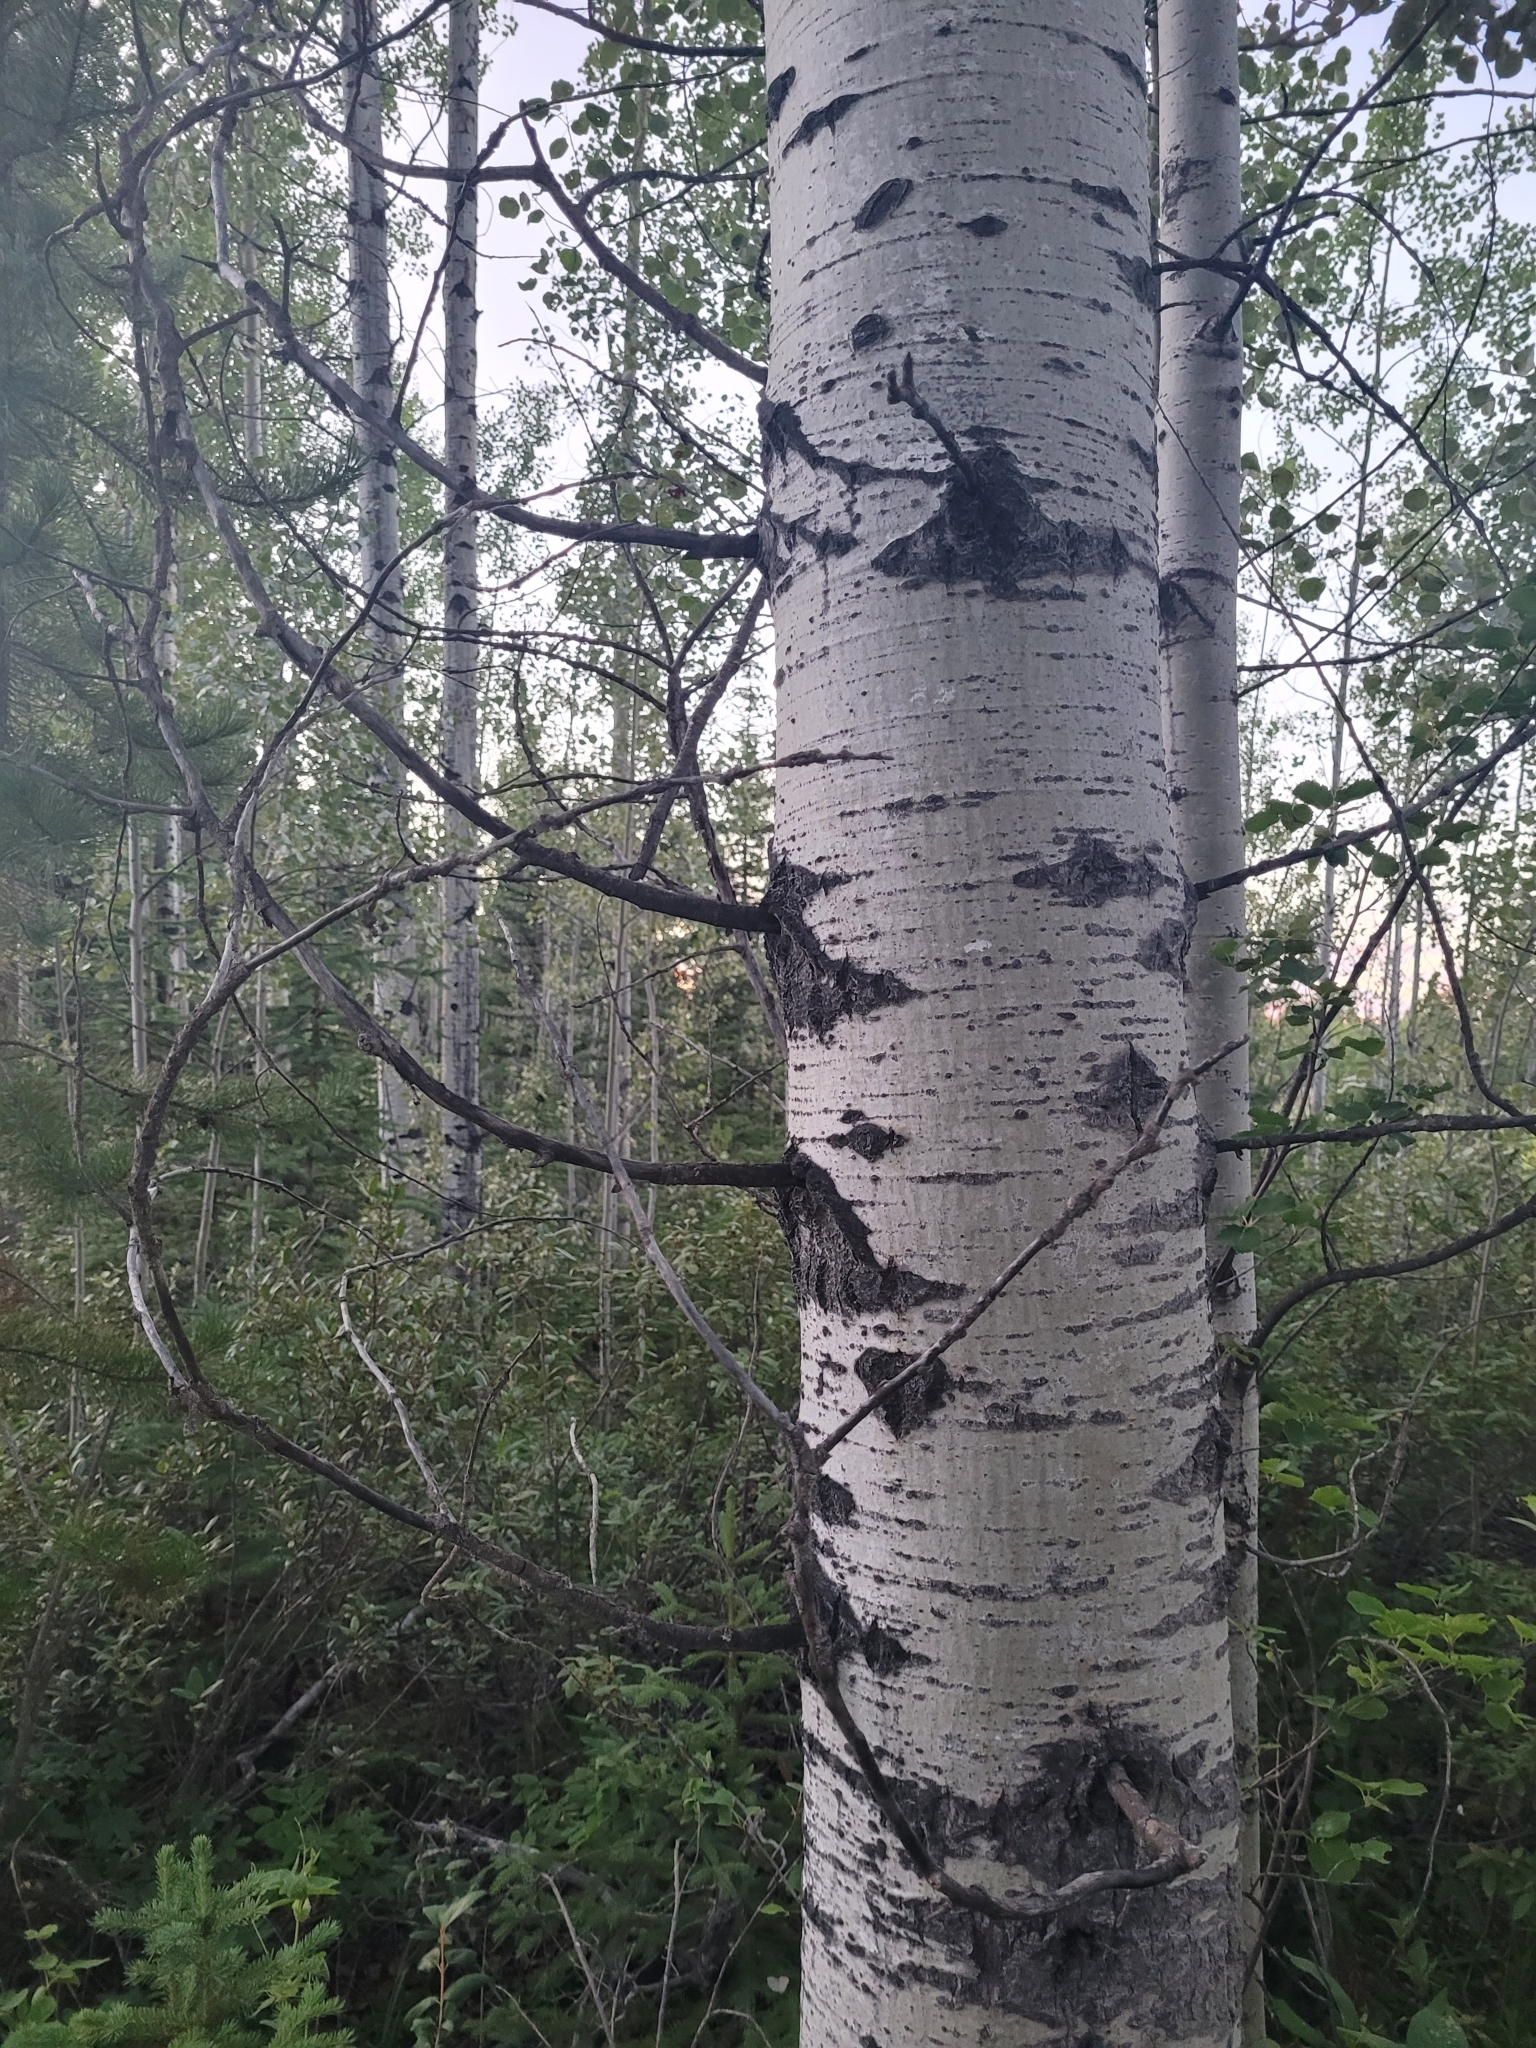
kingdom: Plantae
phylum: Tracheophyta
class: Magnoliopsida
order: Malpighiales
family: Salicaceae
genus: Populus
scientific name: Populus tremuloides
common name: Quaking aspen
